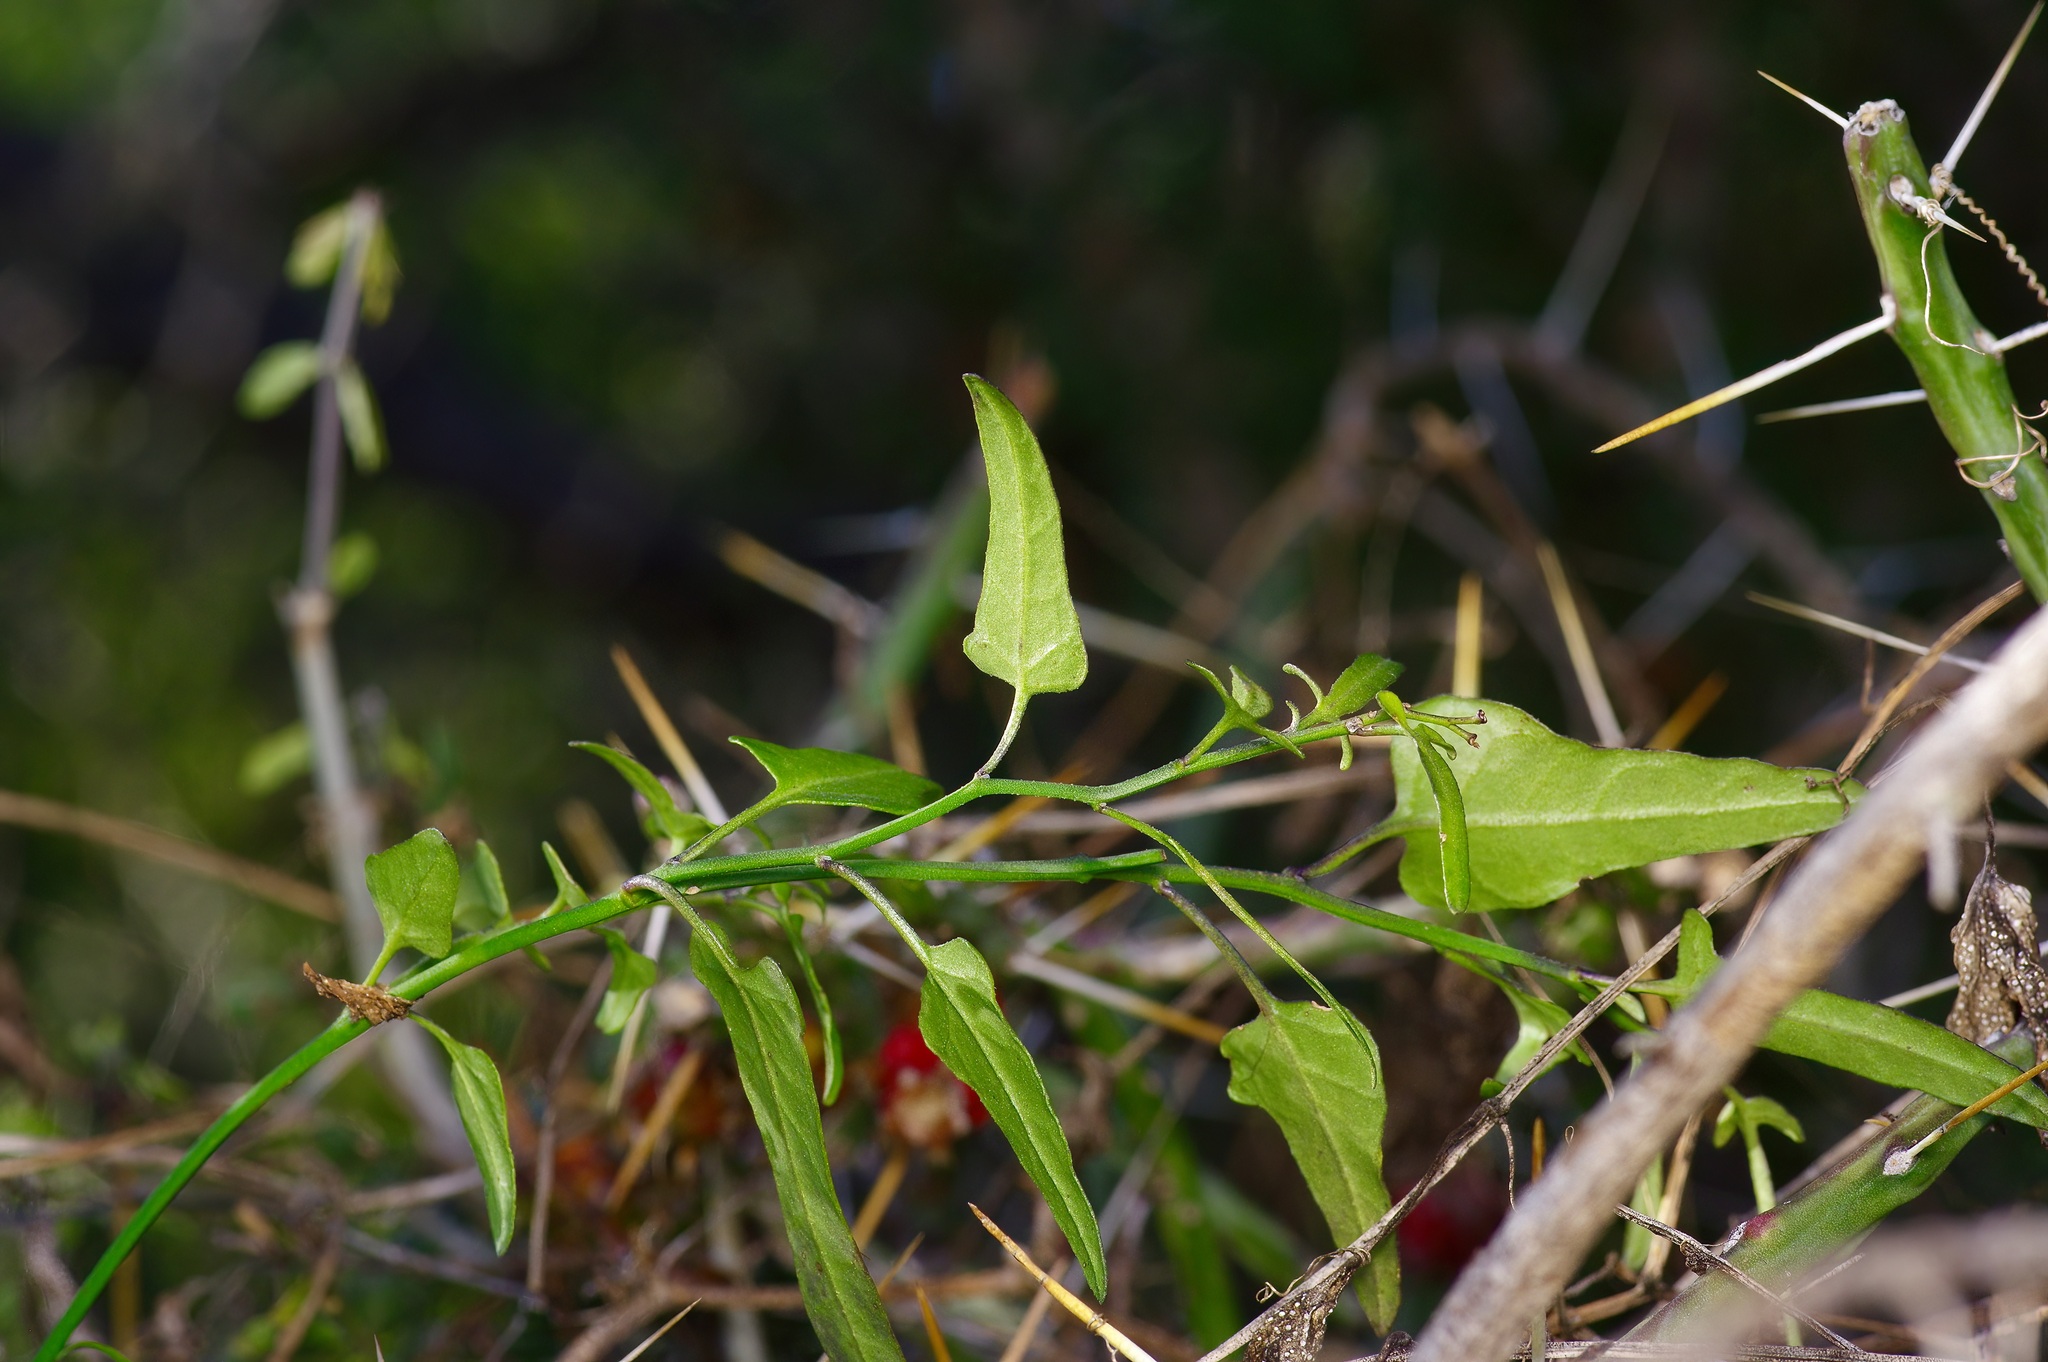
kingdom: Plantae
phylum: Tracheophyta
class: Magnoliopsida
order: Solanales
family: Solanaceae
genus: Solanum
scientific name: Solanum triquetrum
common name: Texas nightshade
